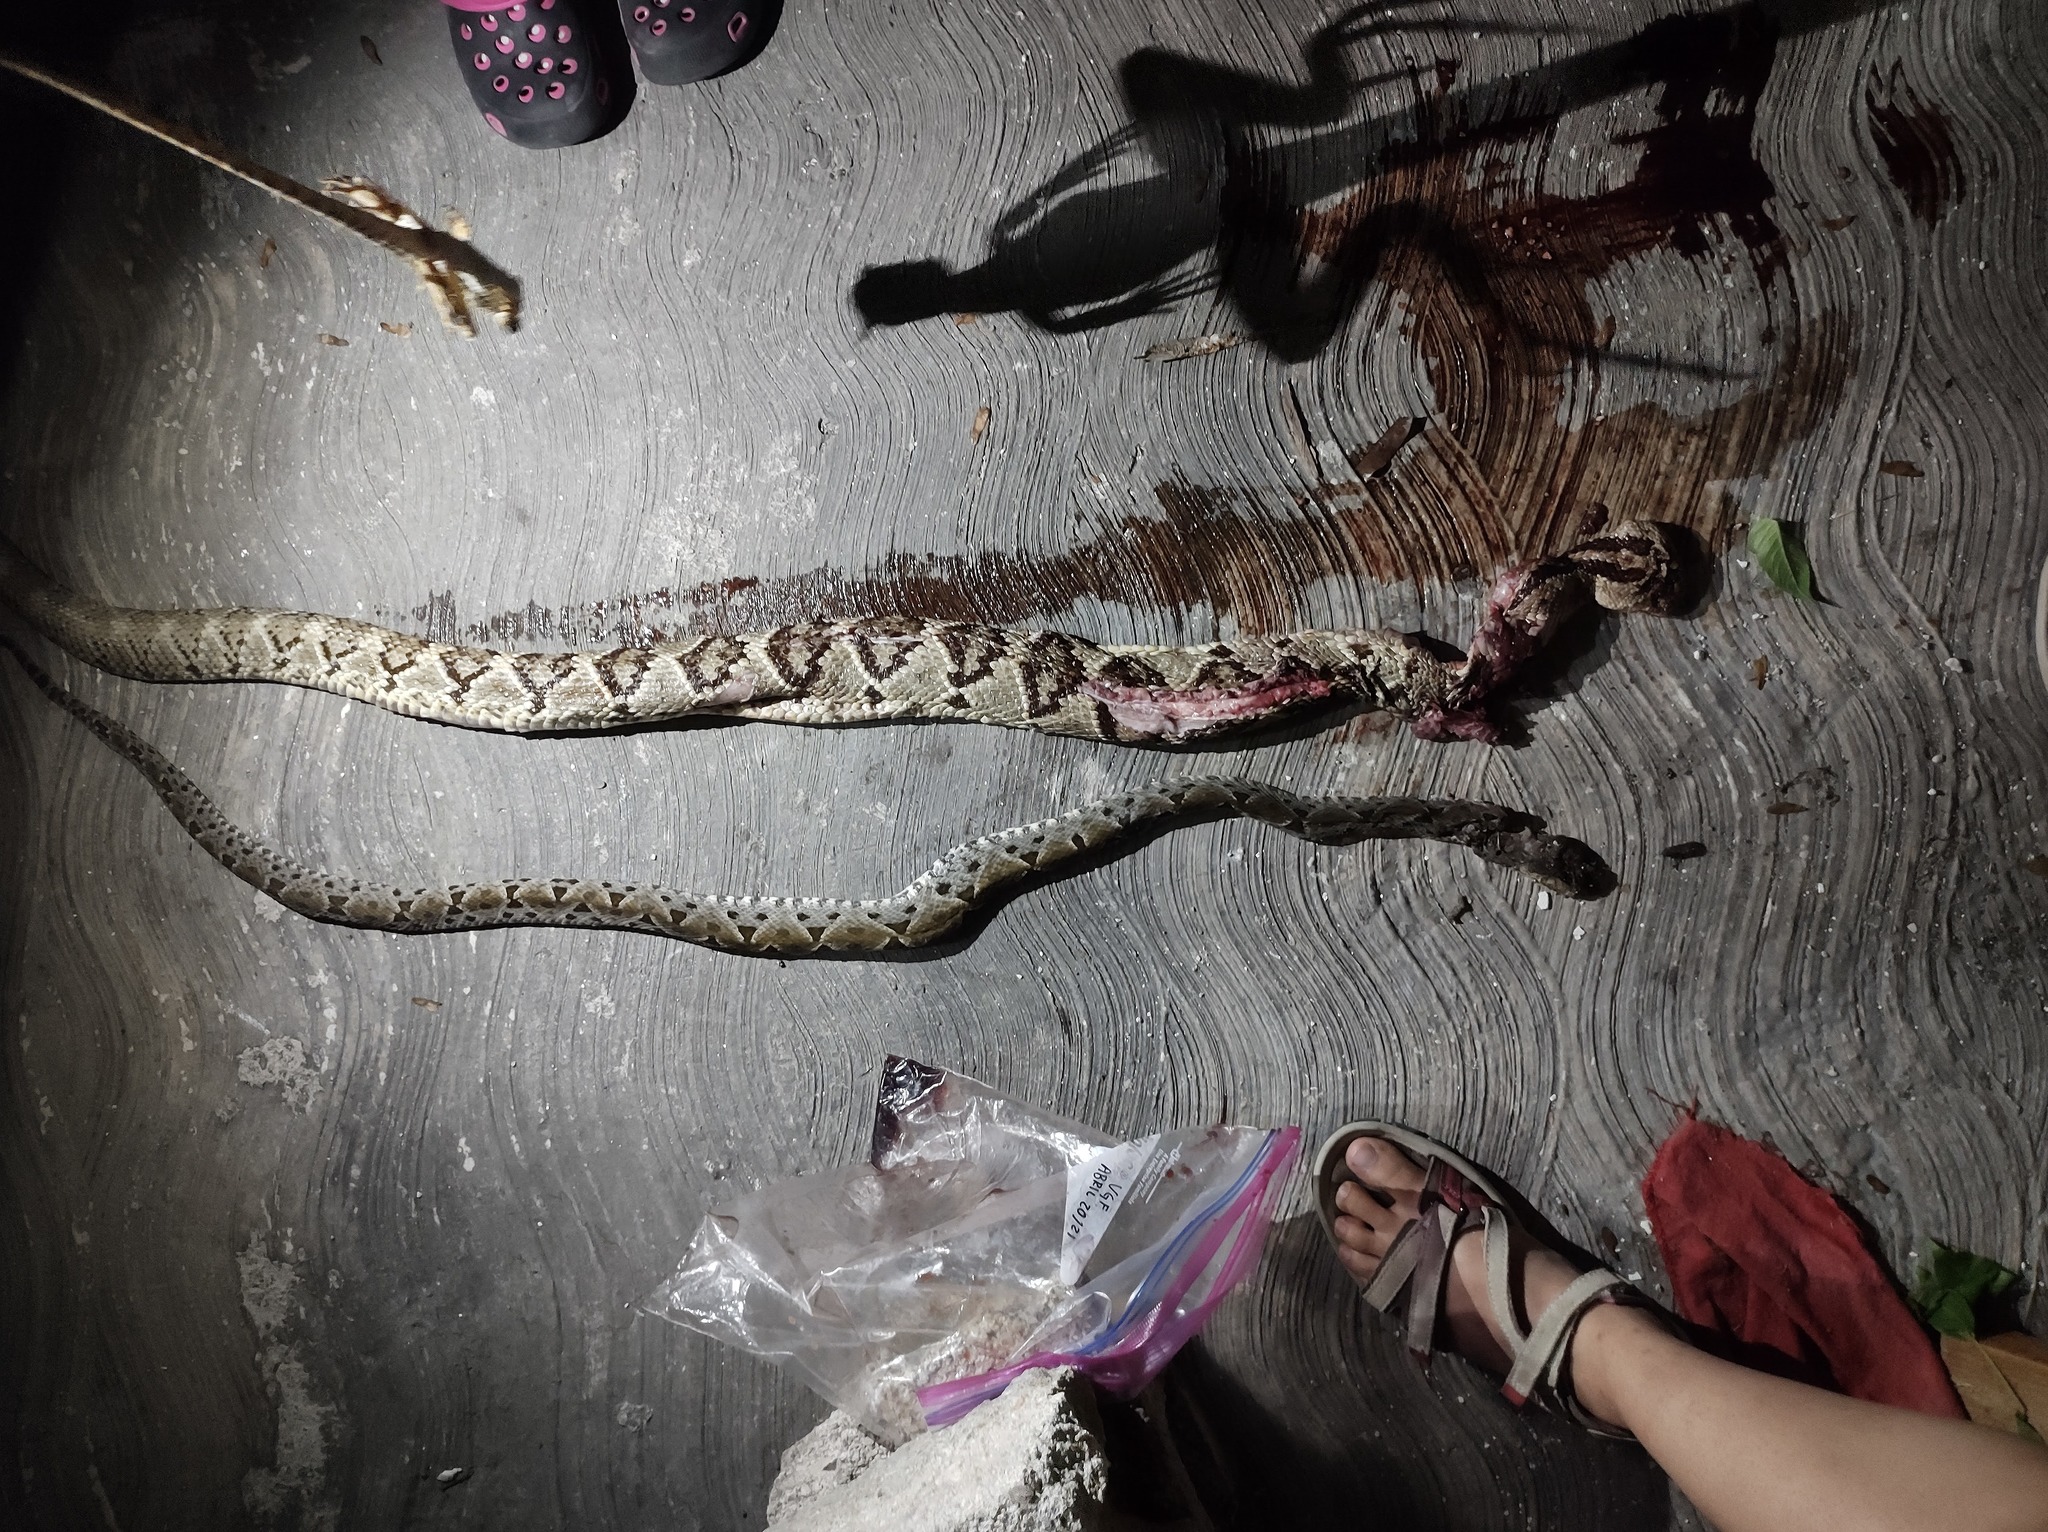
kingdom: Animalia
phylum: Chordata
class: Squamata
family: Viperidae
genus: Bothrops
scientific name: Bothrops asper
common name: Terciopelo
